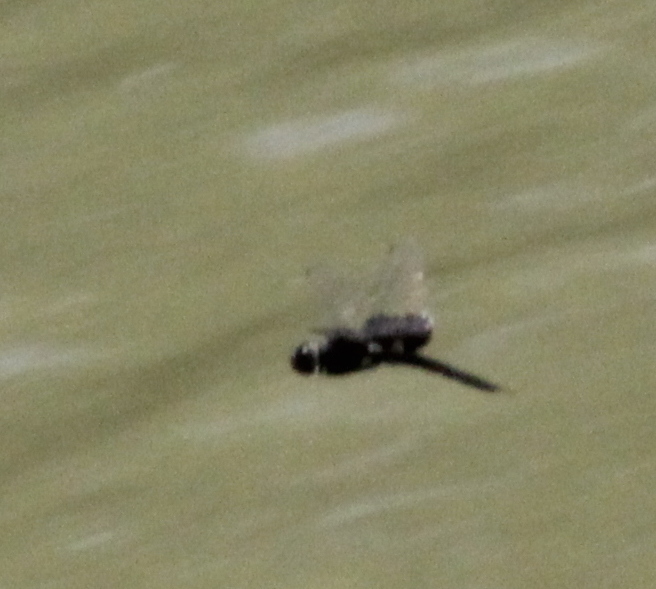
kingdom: Animalia
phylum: Arthropoda
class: Insecta
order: Odonata
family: Libellulidae
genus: Tramea
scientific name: Tramea lacerata
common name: Black saddlebags
